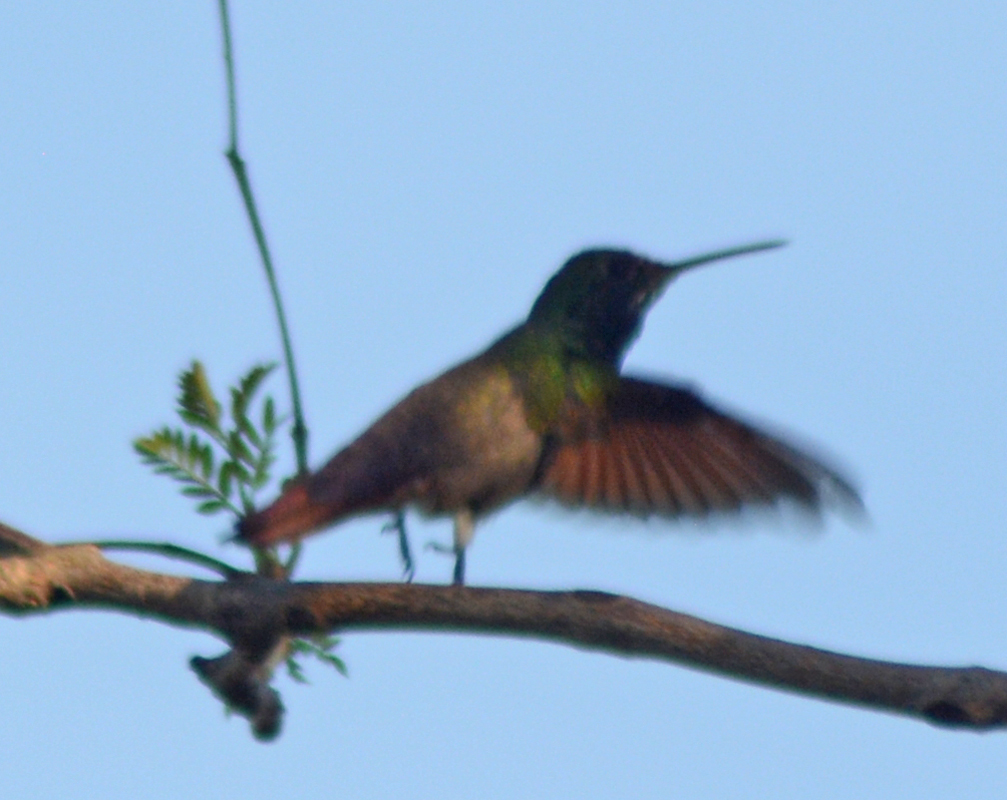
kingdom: Animalia
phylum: Chordata
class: Aves
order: Apodiformes
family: Trochilidae
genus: Saucerottia
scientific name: Saucerottia beryllina
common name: Berylline hummingbird
